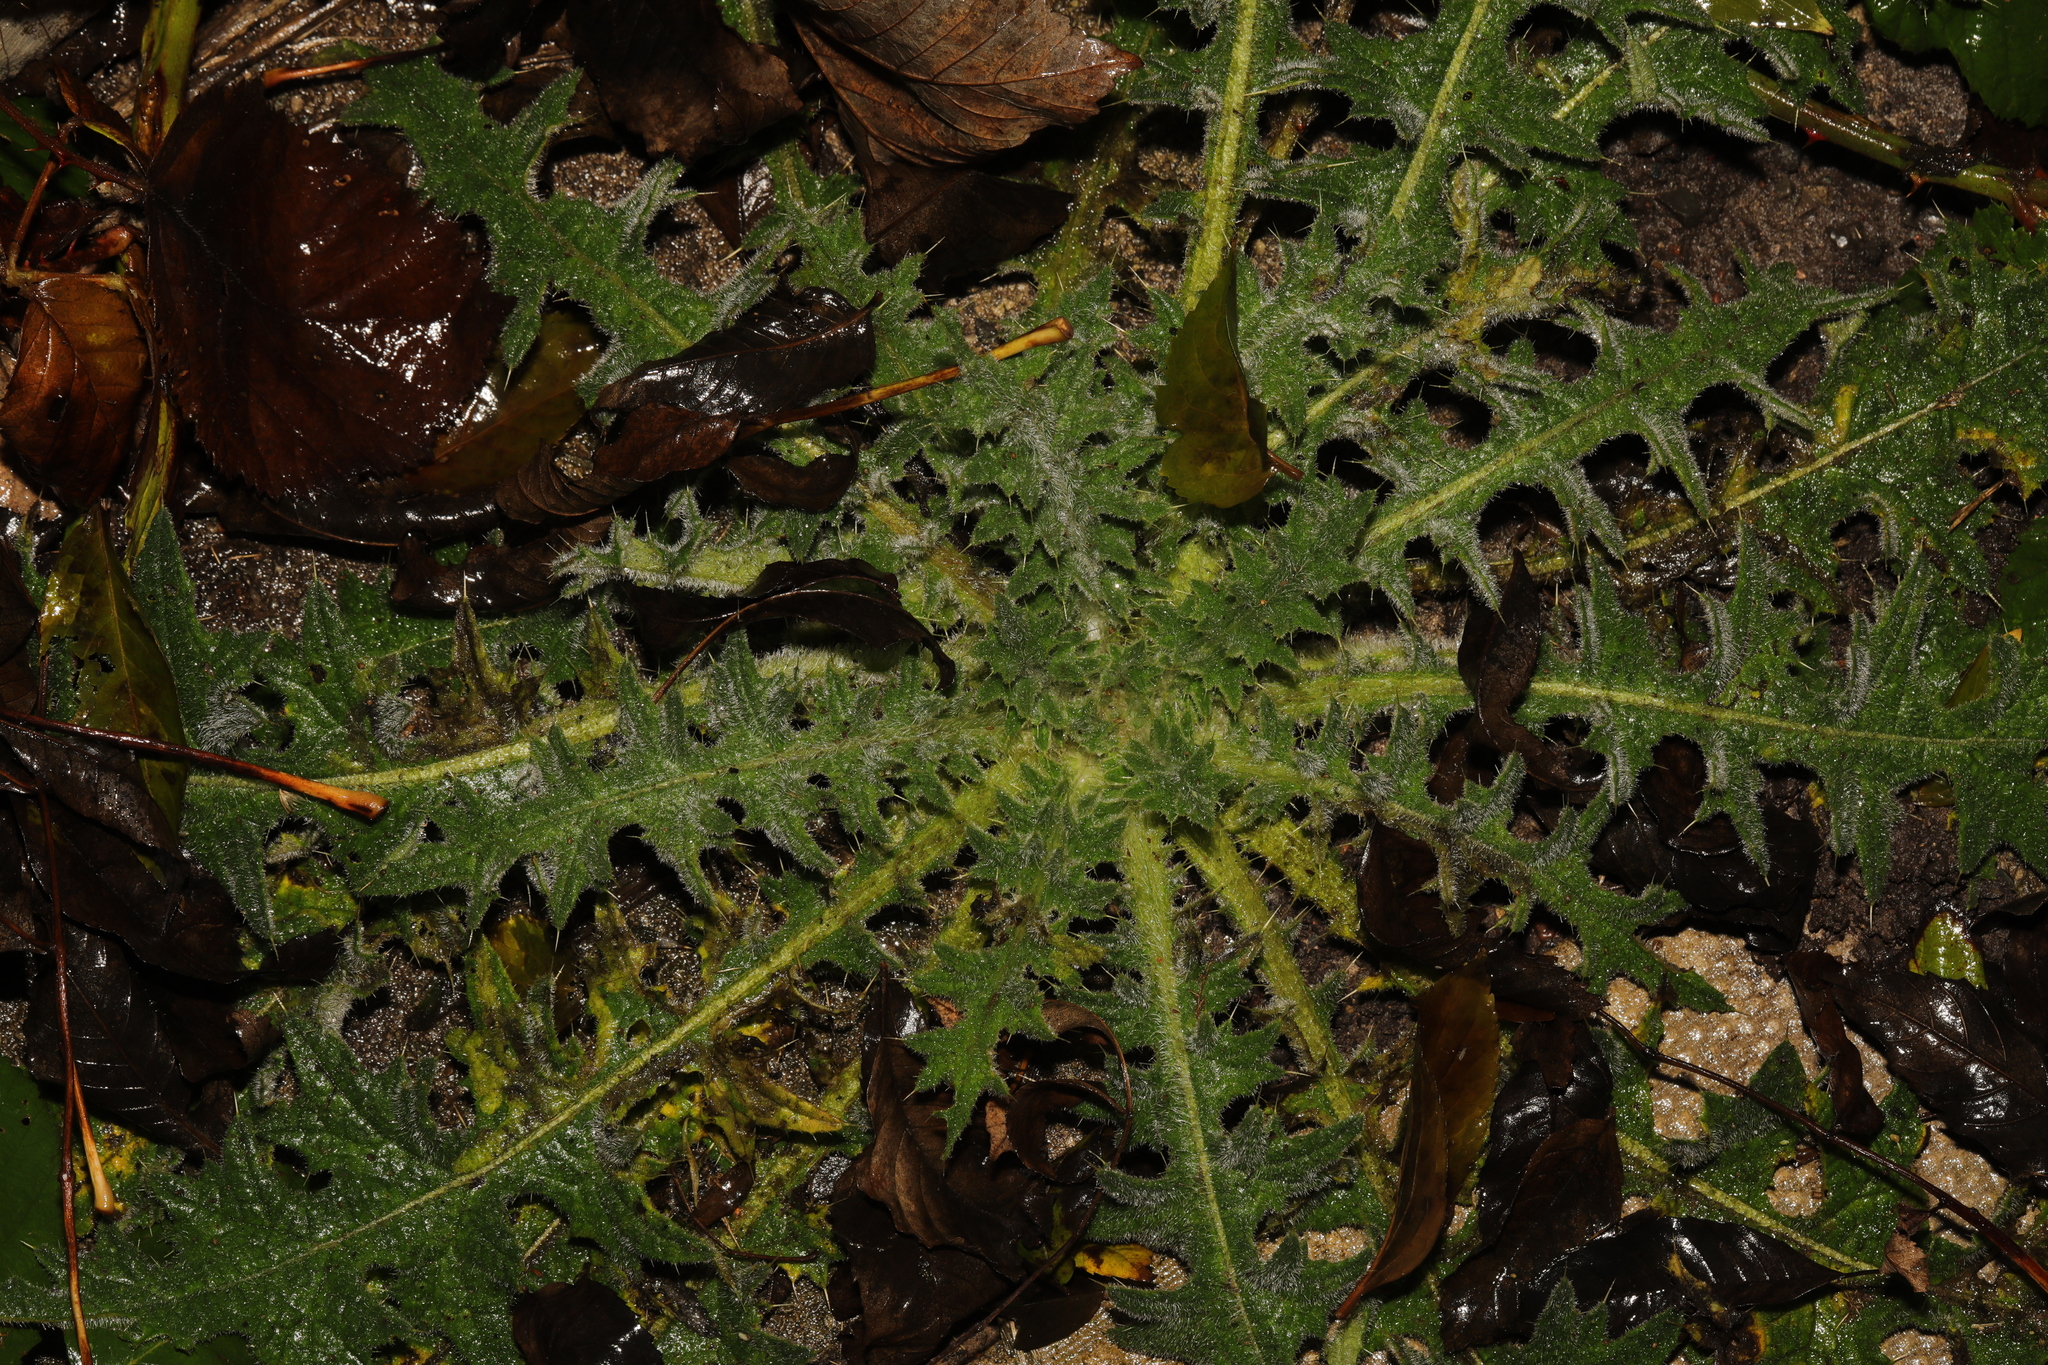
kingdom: Plantae
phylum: Tracheophyta
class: Magnoliopsida
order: Asterales
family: Asteraceae
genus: Cirsium
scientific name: Cirsium vulgare
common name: Bull thistle
